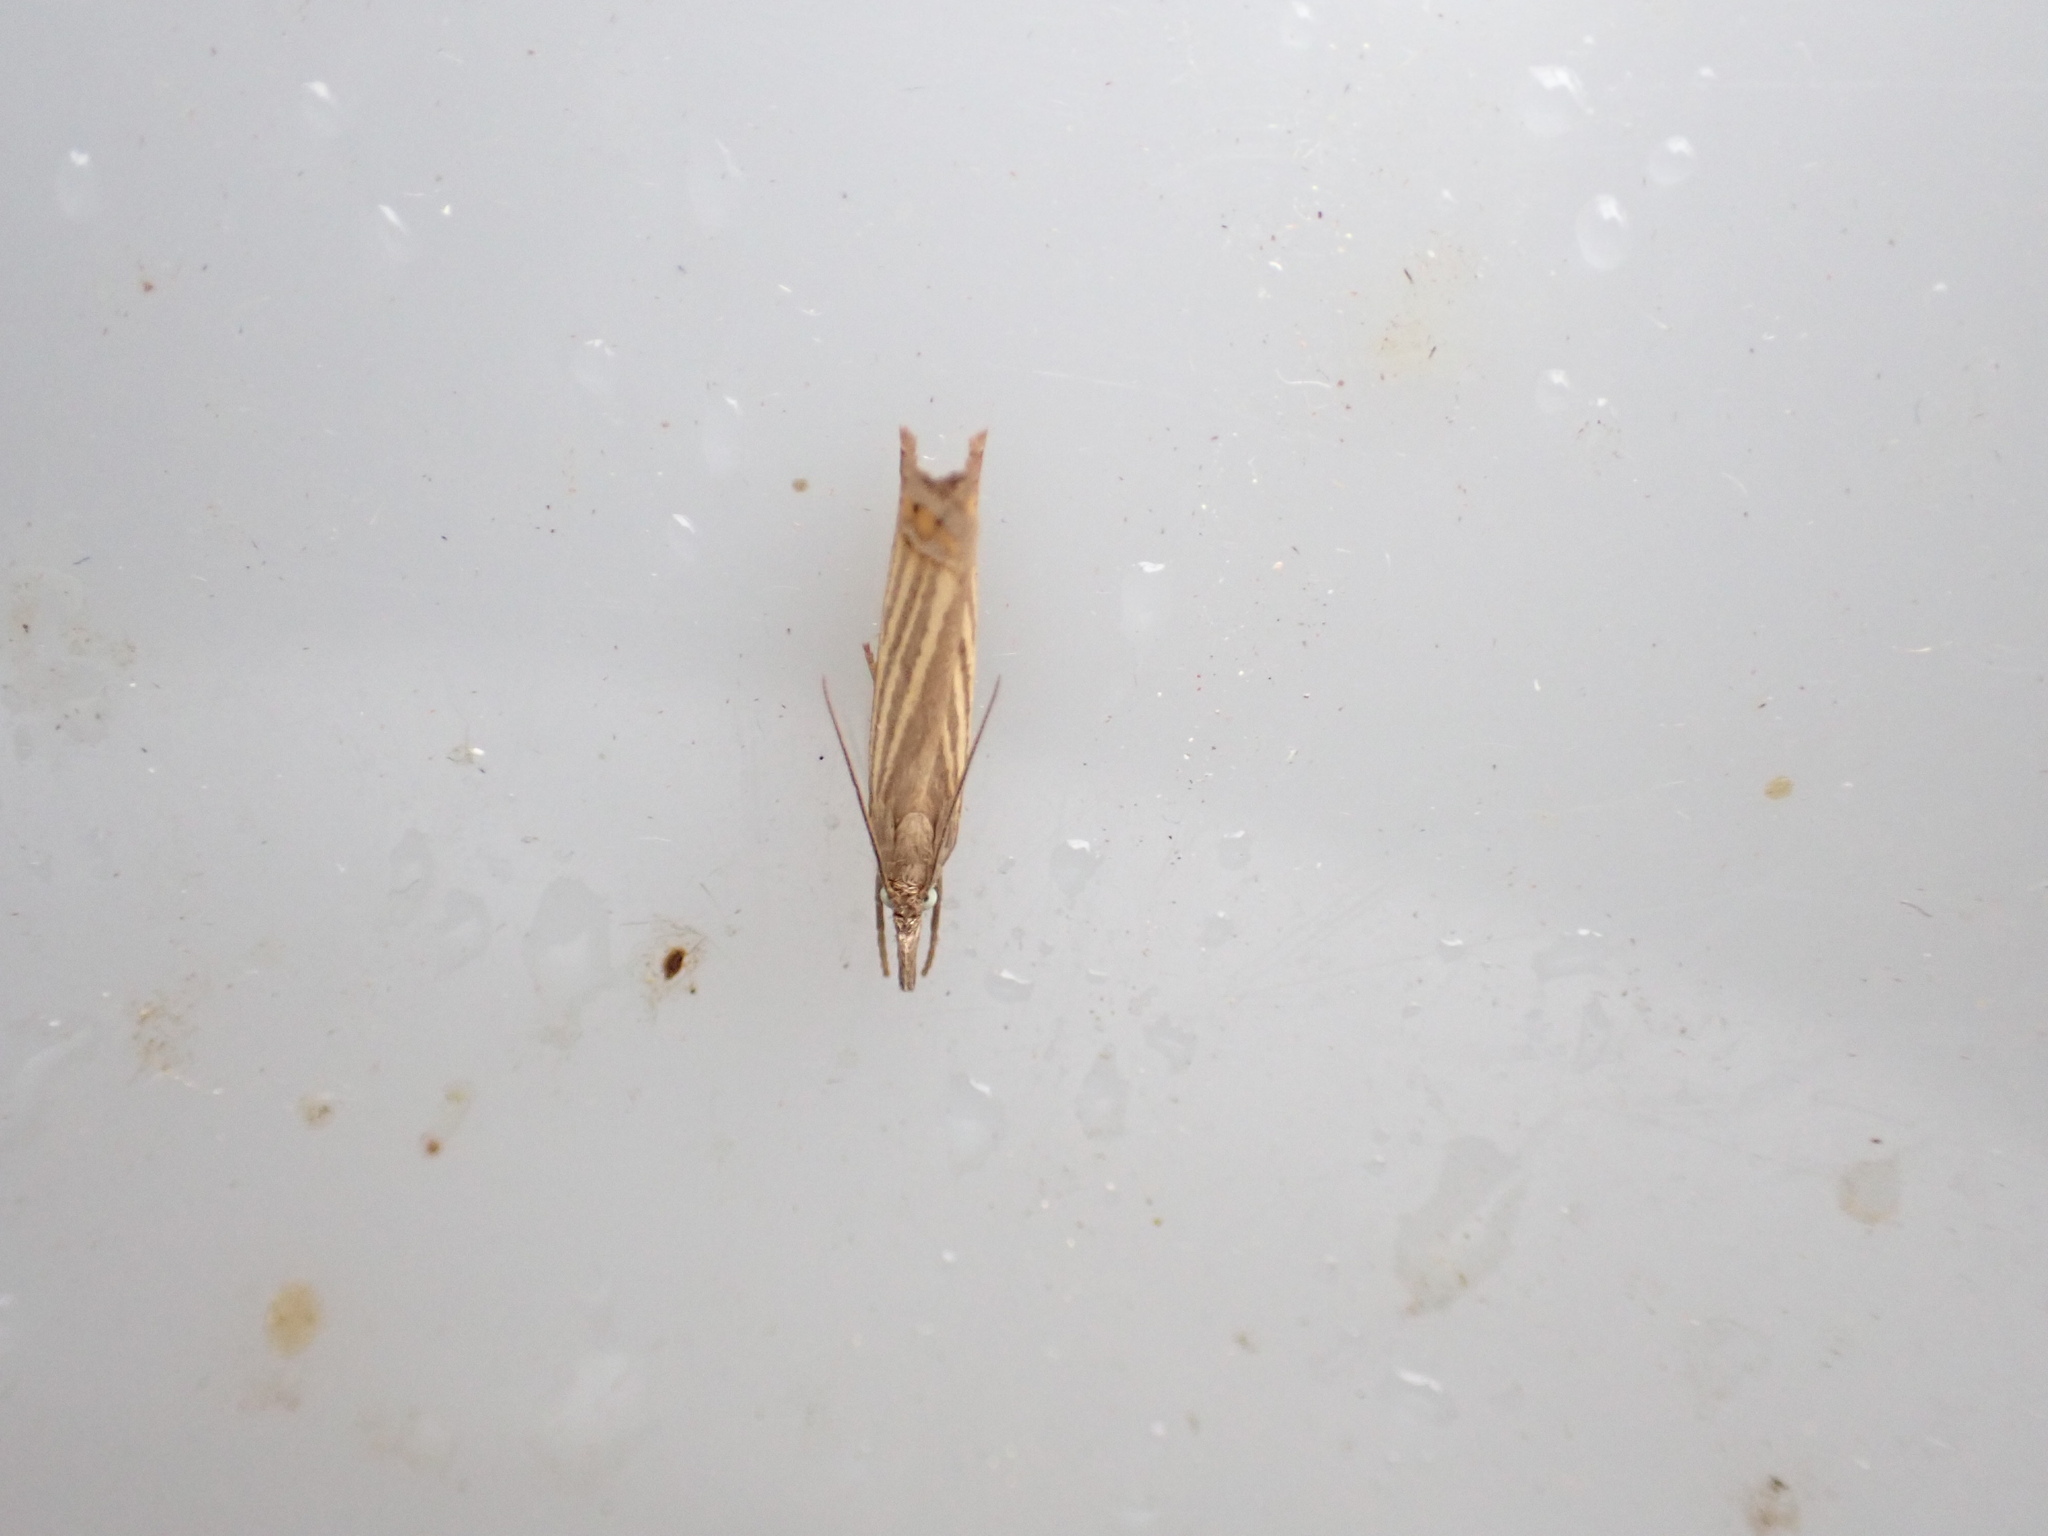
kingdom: Animalia
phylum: Arthropoda
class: Insecta
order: Lepidoptera
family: Crambidae
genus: Chrysoteuchia
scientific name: Chrysoteuchia culmella
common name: Garden grass-veneer
